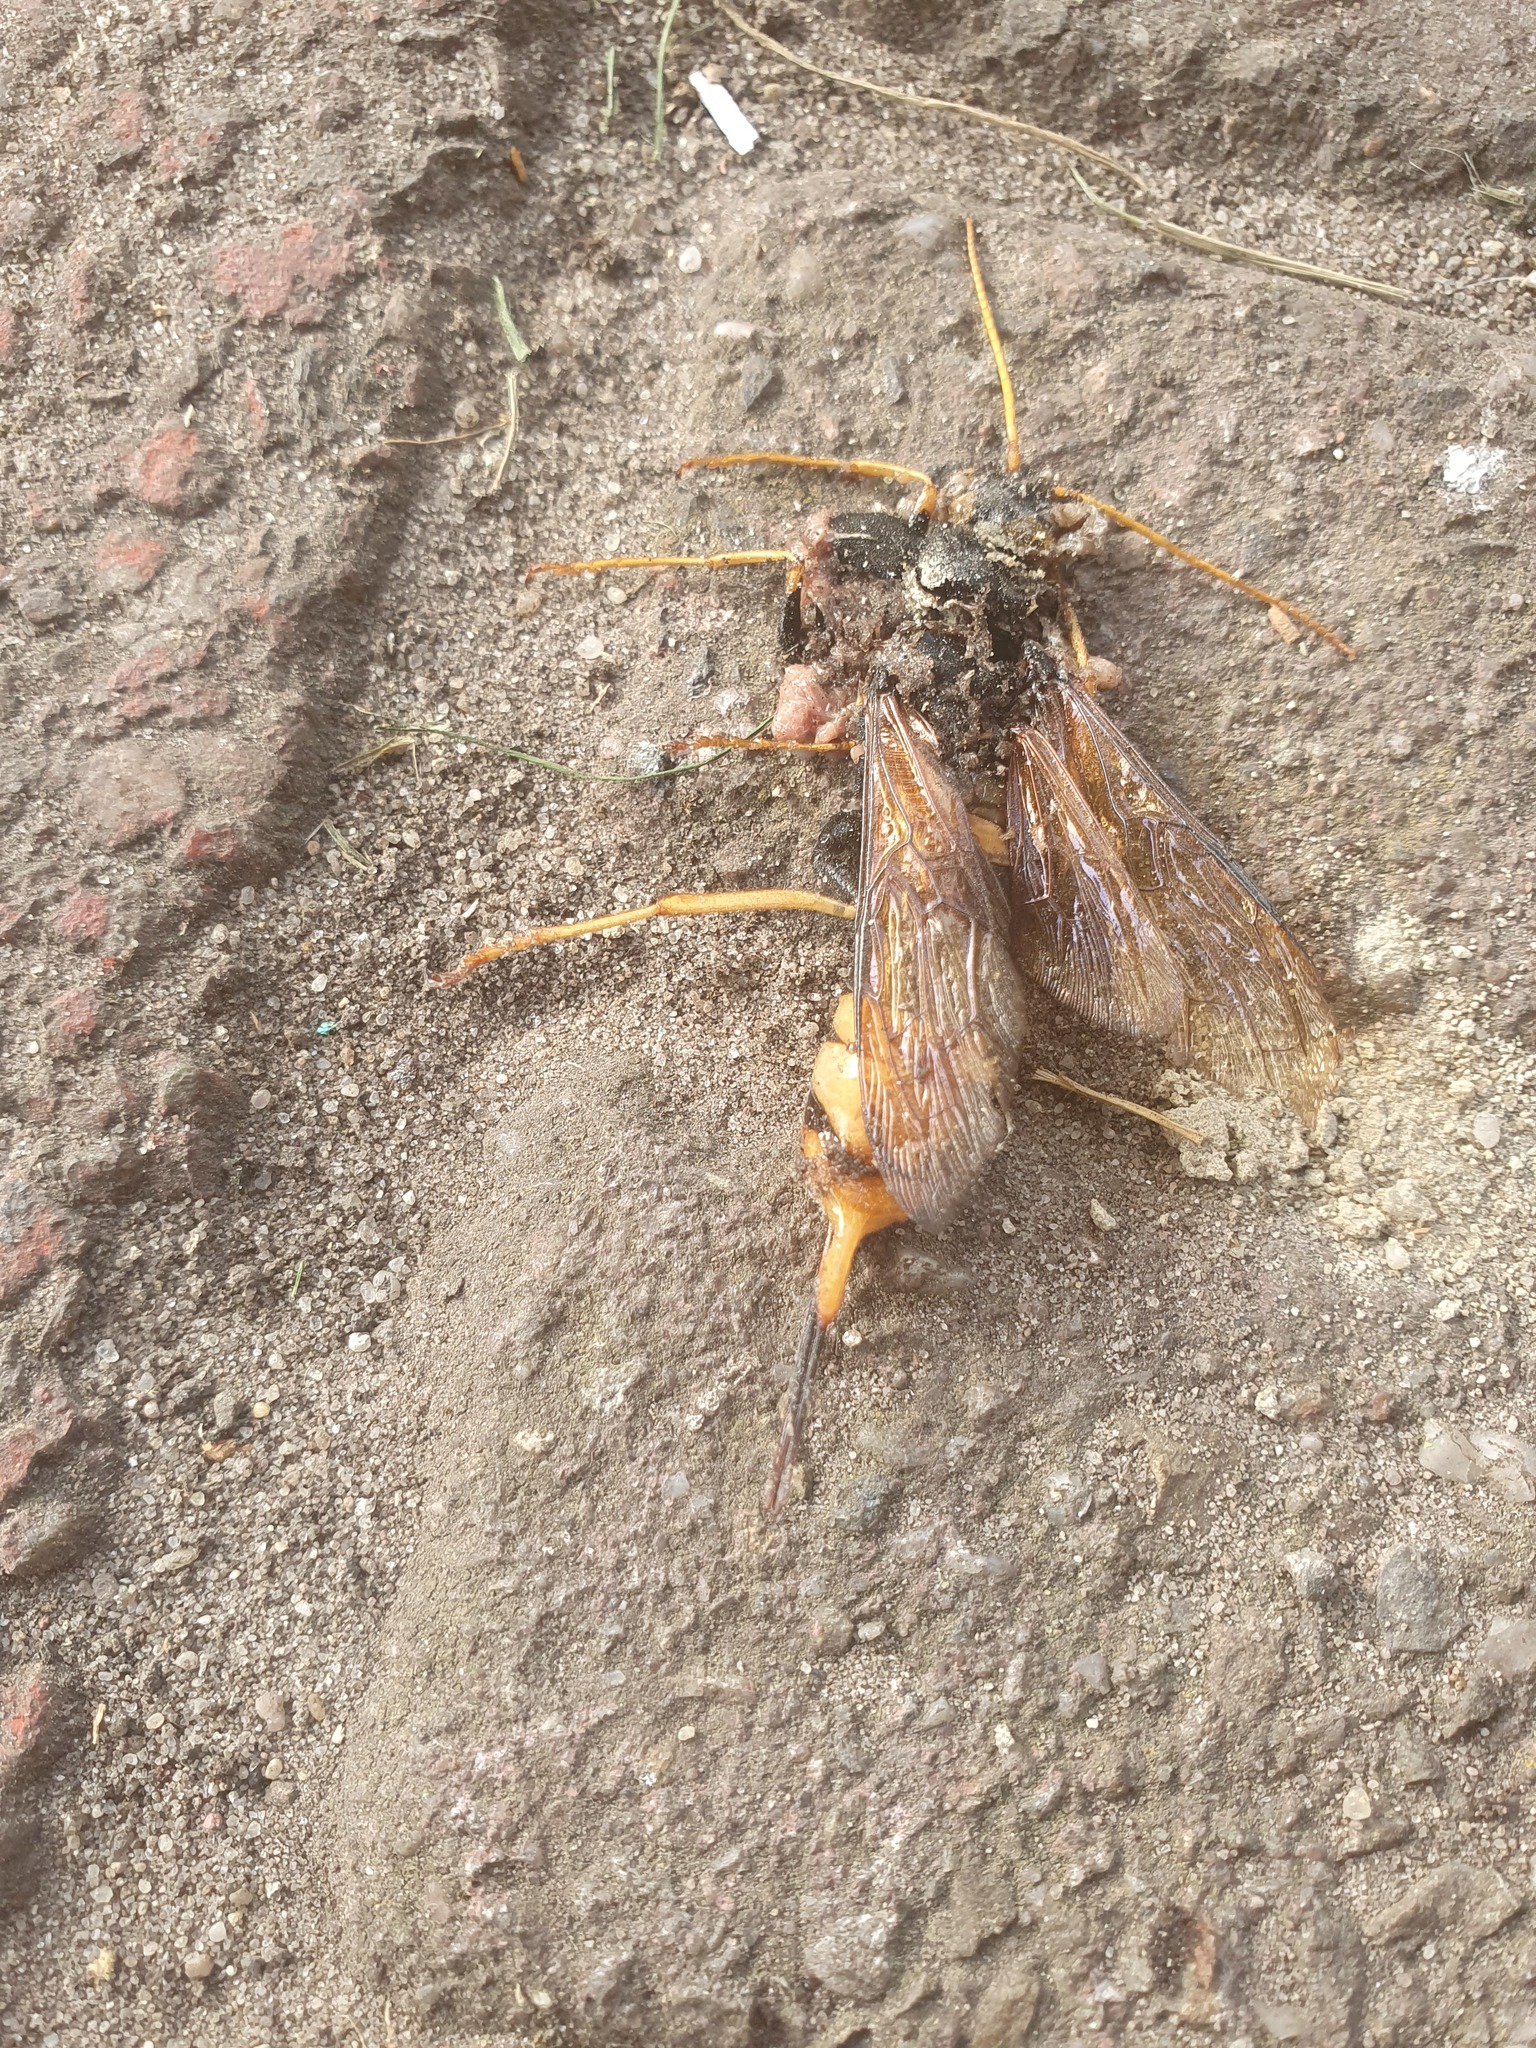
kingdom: Animalia
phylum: Arthropoda
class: Insecta
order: Hymenoptera
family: Siricidae
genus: Urocerus
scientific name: Urocerus gigas
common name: Giant woodwasp
